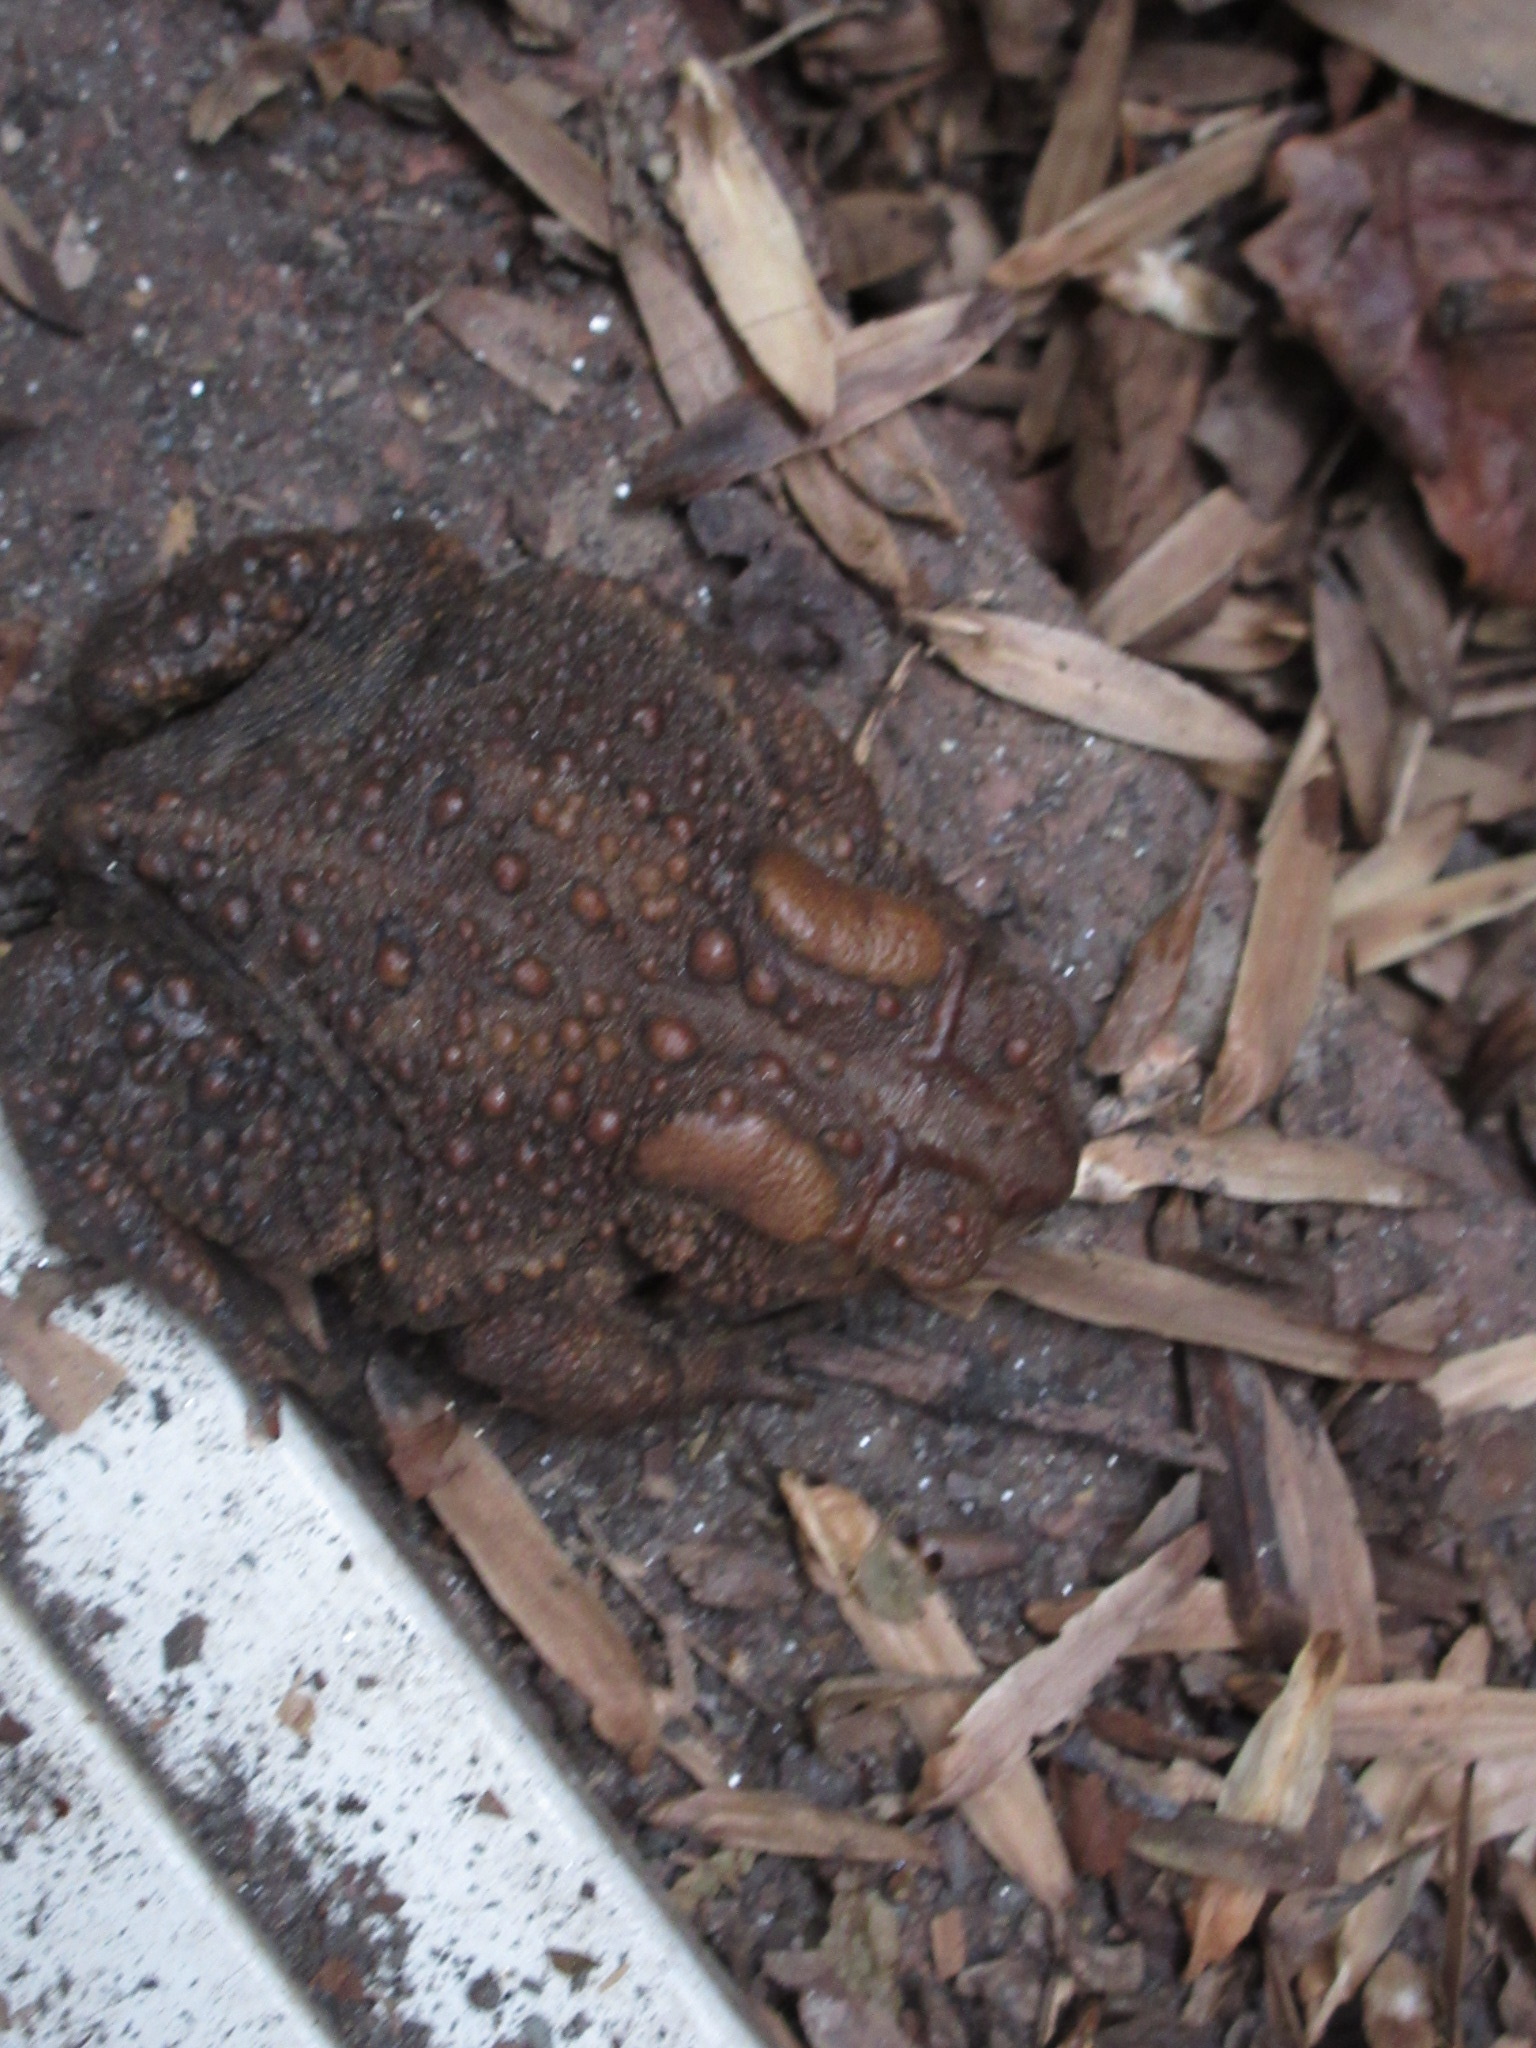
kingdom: Animalia
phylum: Chordata
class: Amphibia
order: Anura
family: Bufonidae
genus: Anaxyrus
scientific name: Anaxyrus americanus
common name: American toad
